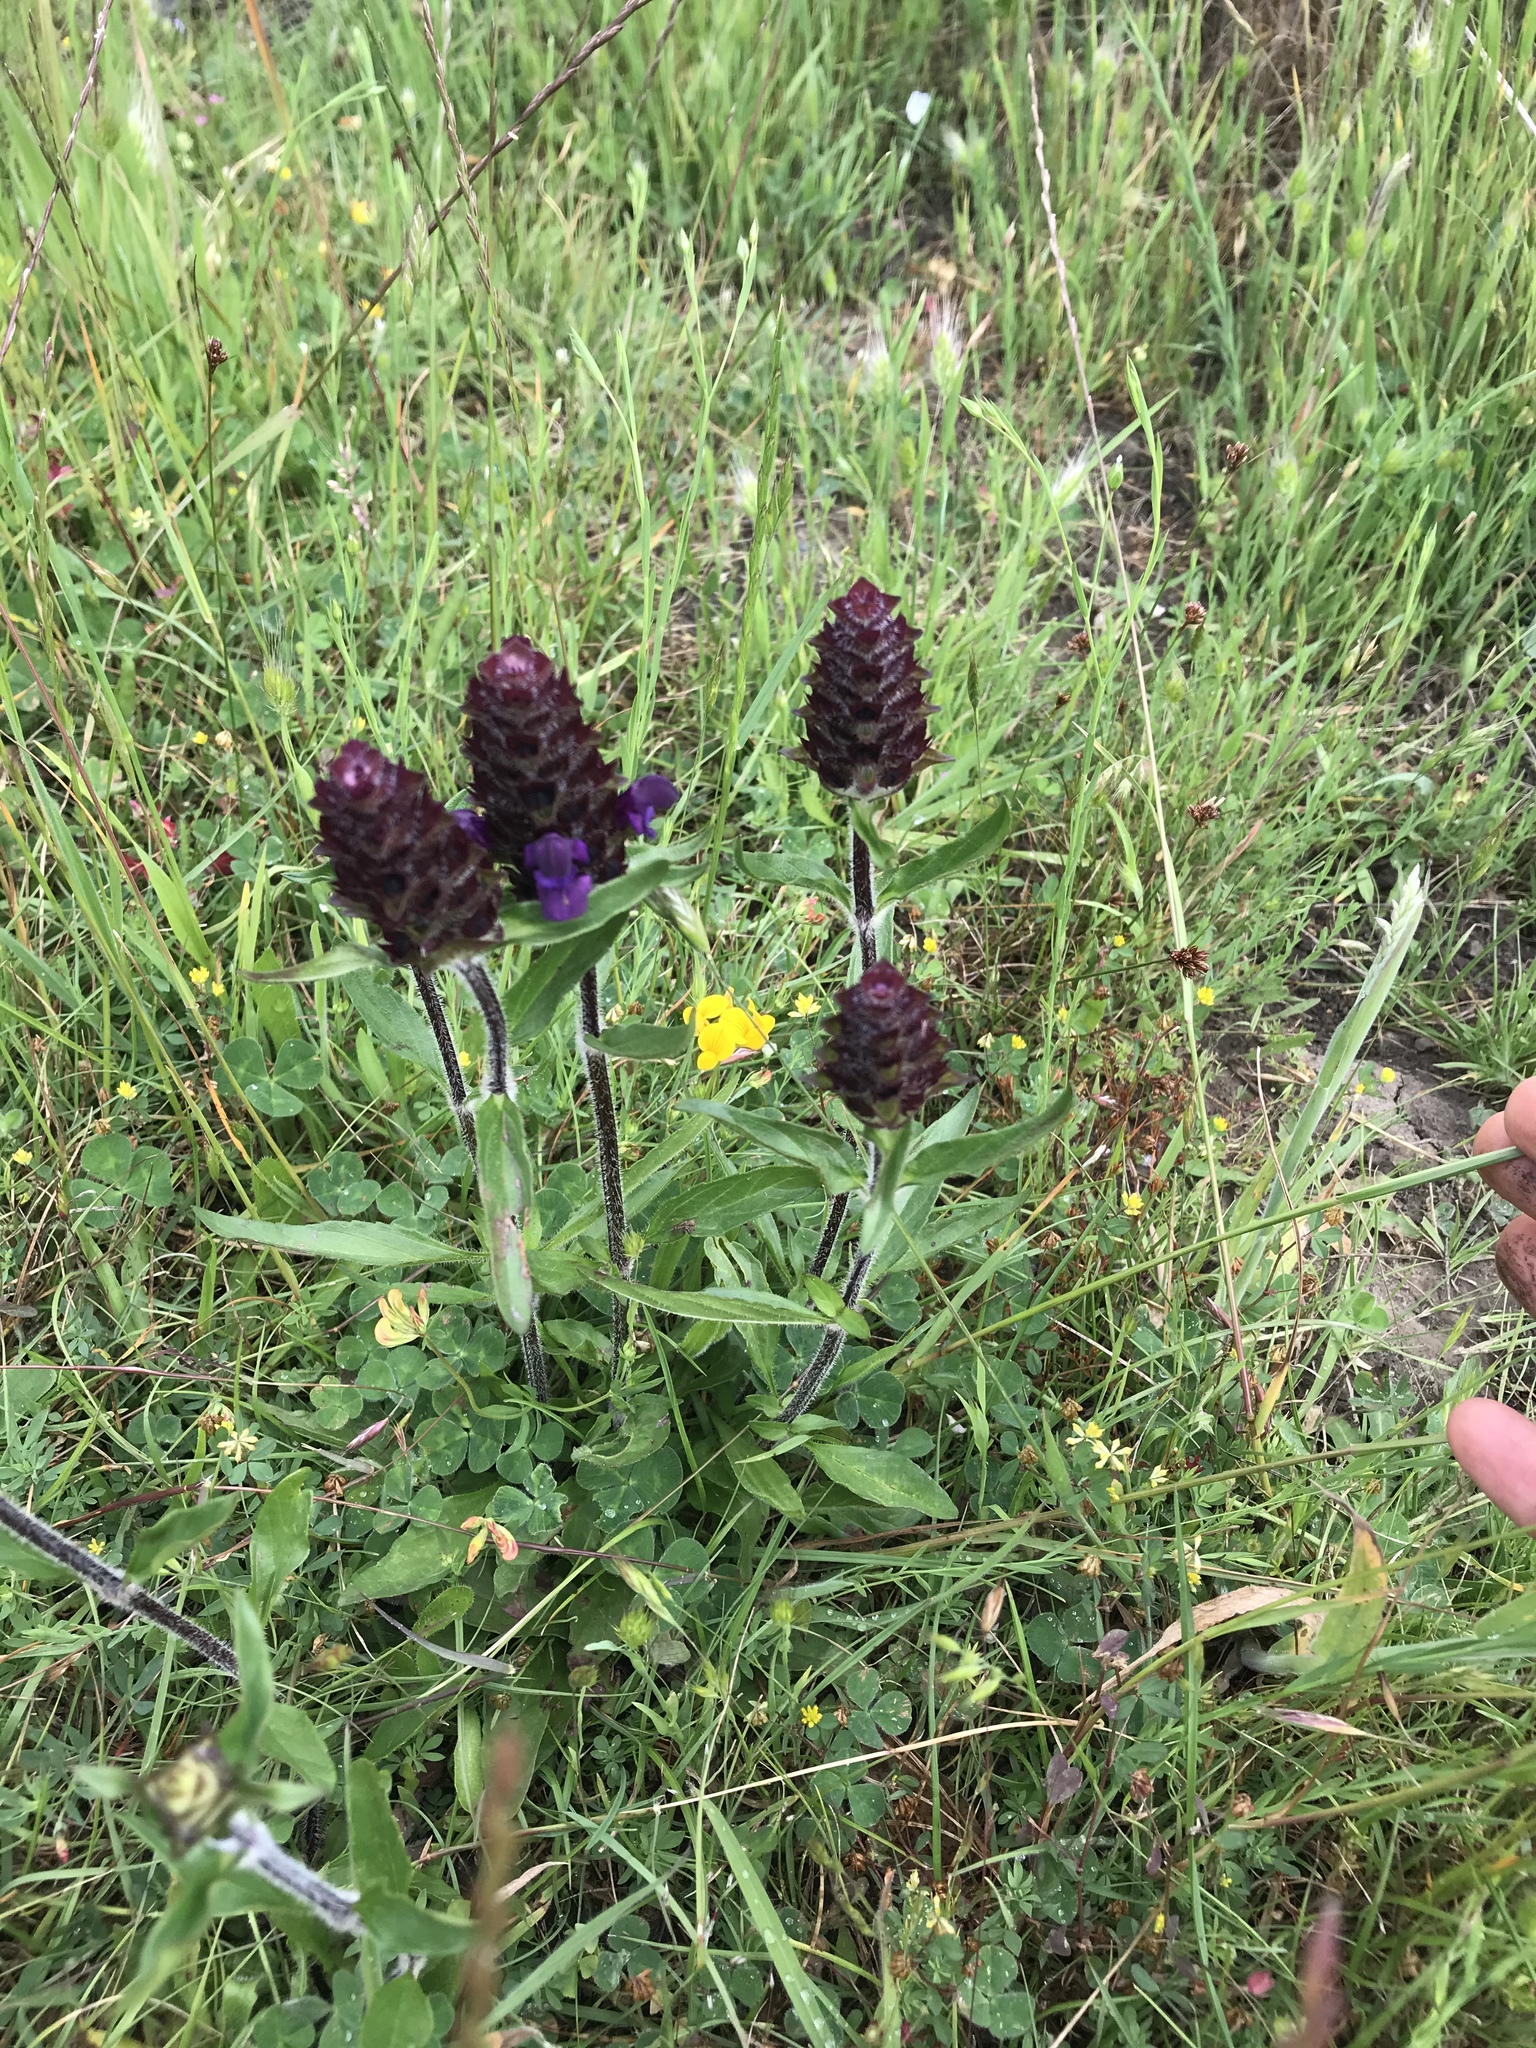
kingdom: Plantae
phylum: Tracheophyta
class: Magnoliopsida
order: Lamiales
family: Lamiaceae
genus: Prunella
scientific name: Prunella vulgaris
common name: Heal-all
